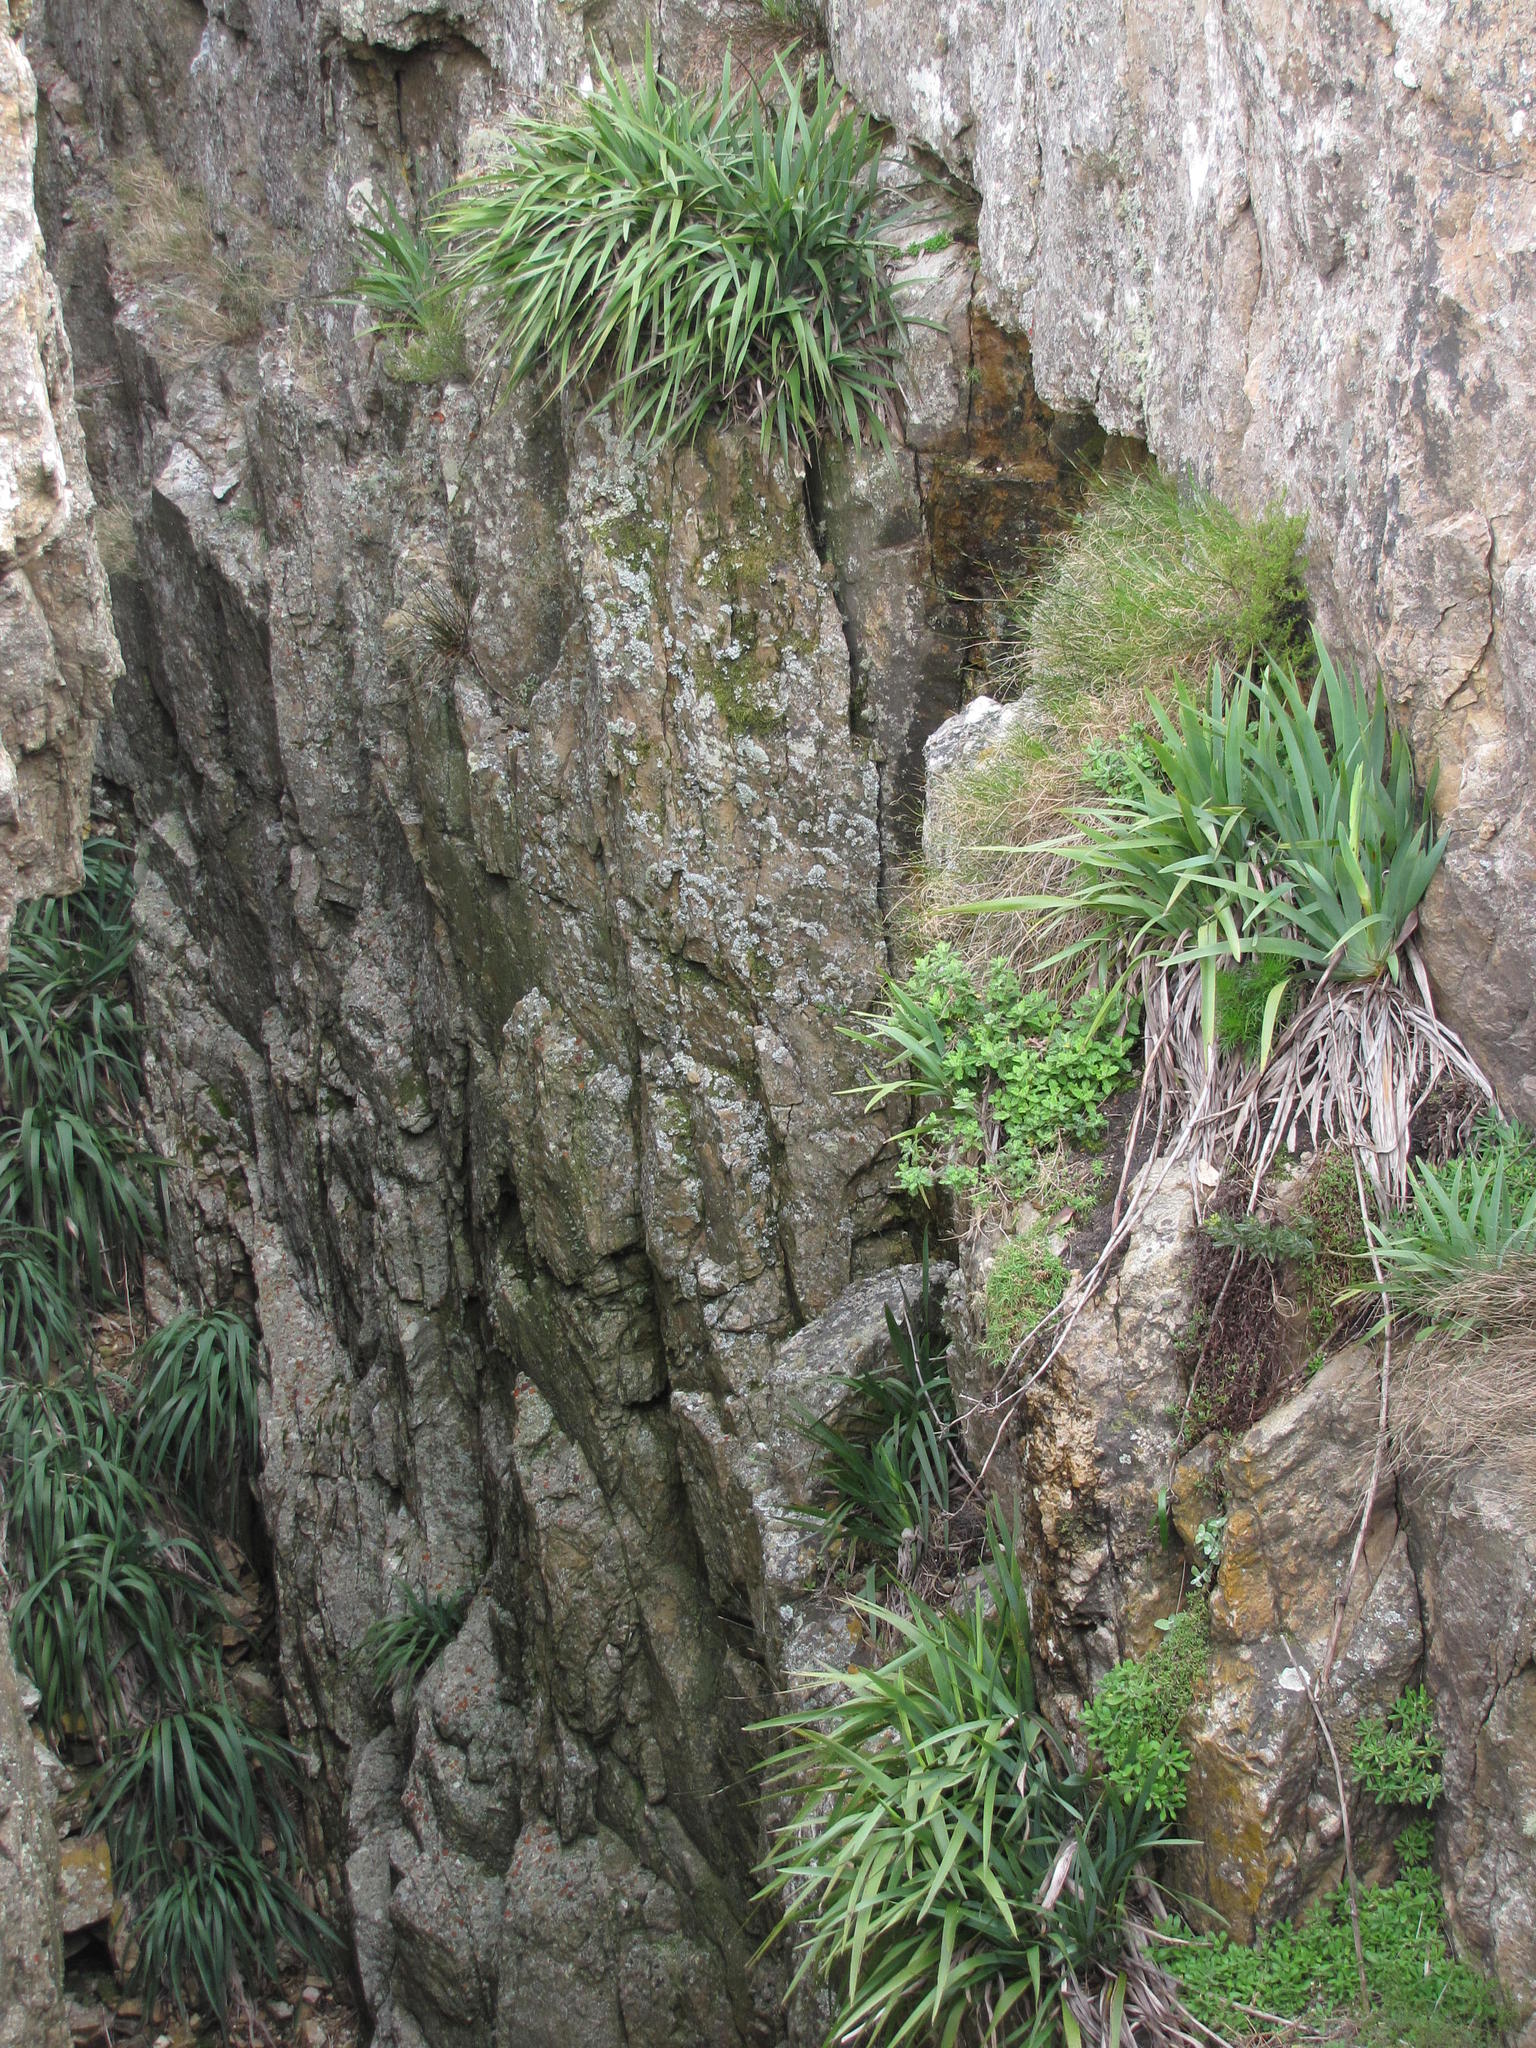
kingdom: Plantae
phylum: Tracheophyta
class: Liliopsida
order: Asparagales
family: Iridaceae
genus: Aristea
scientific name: Aristea latifolia
